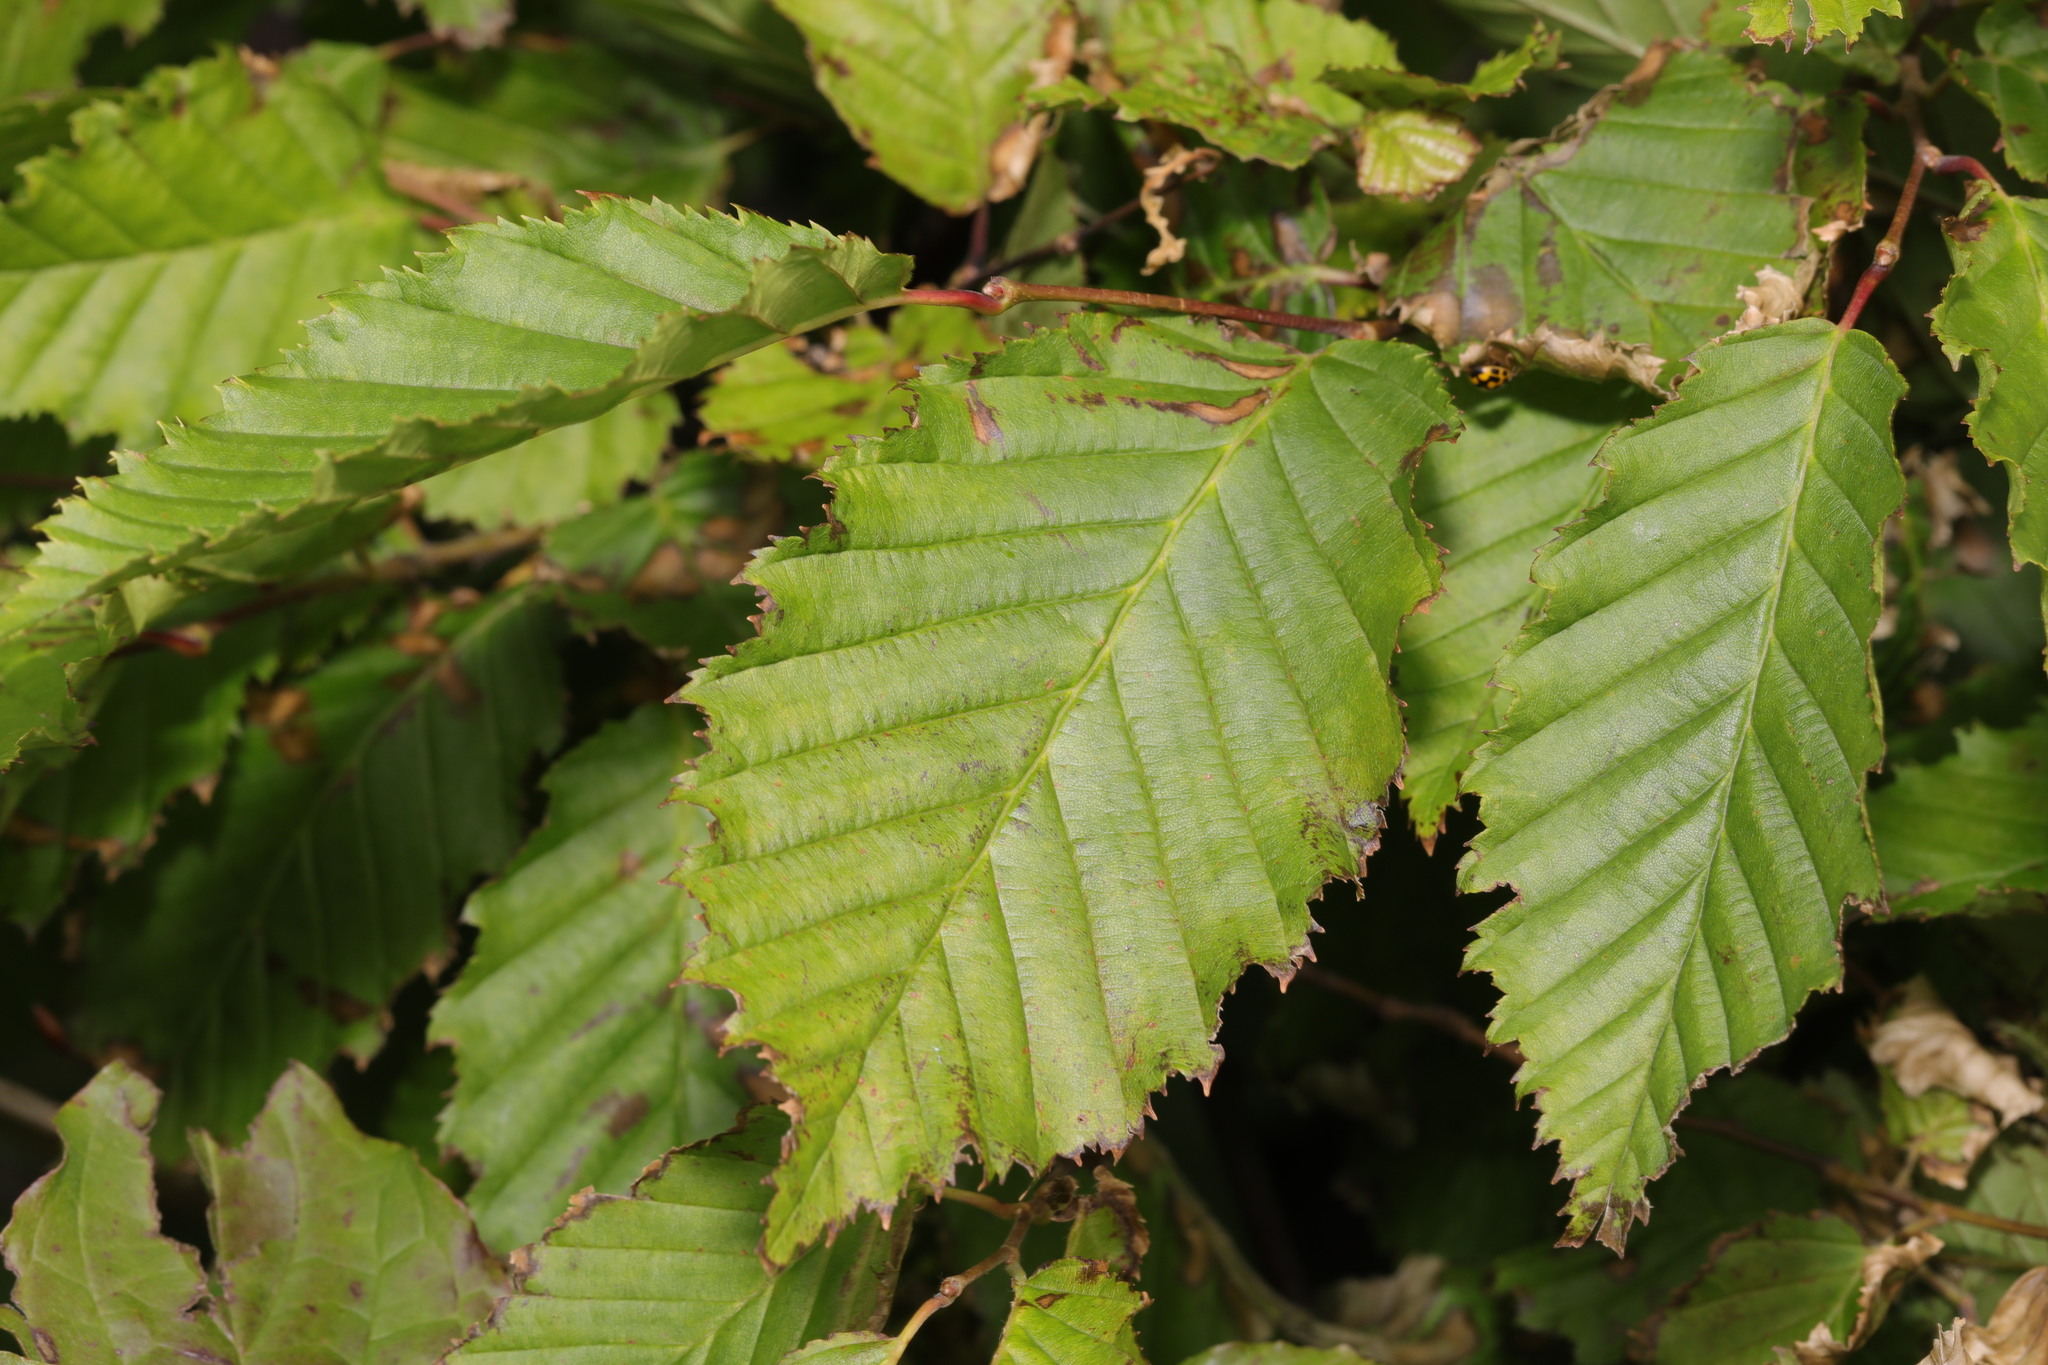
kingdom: Plantae
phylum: Tracheophyta
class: Magnoliopsida
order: Fagales
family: Betulaceae
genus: Carpinus
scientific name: Carpinus betulus
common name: Hornbeam
